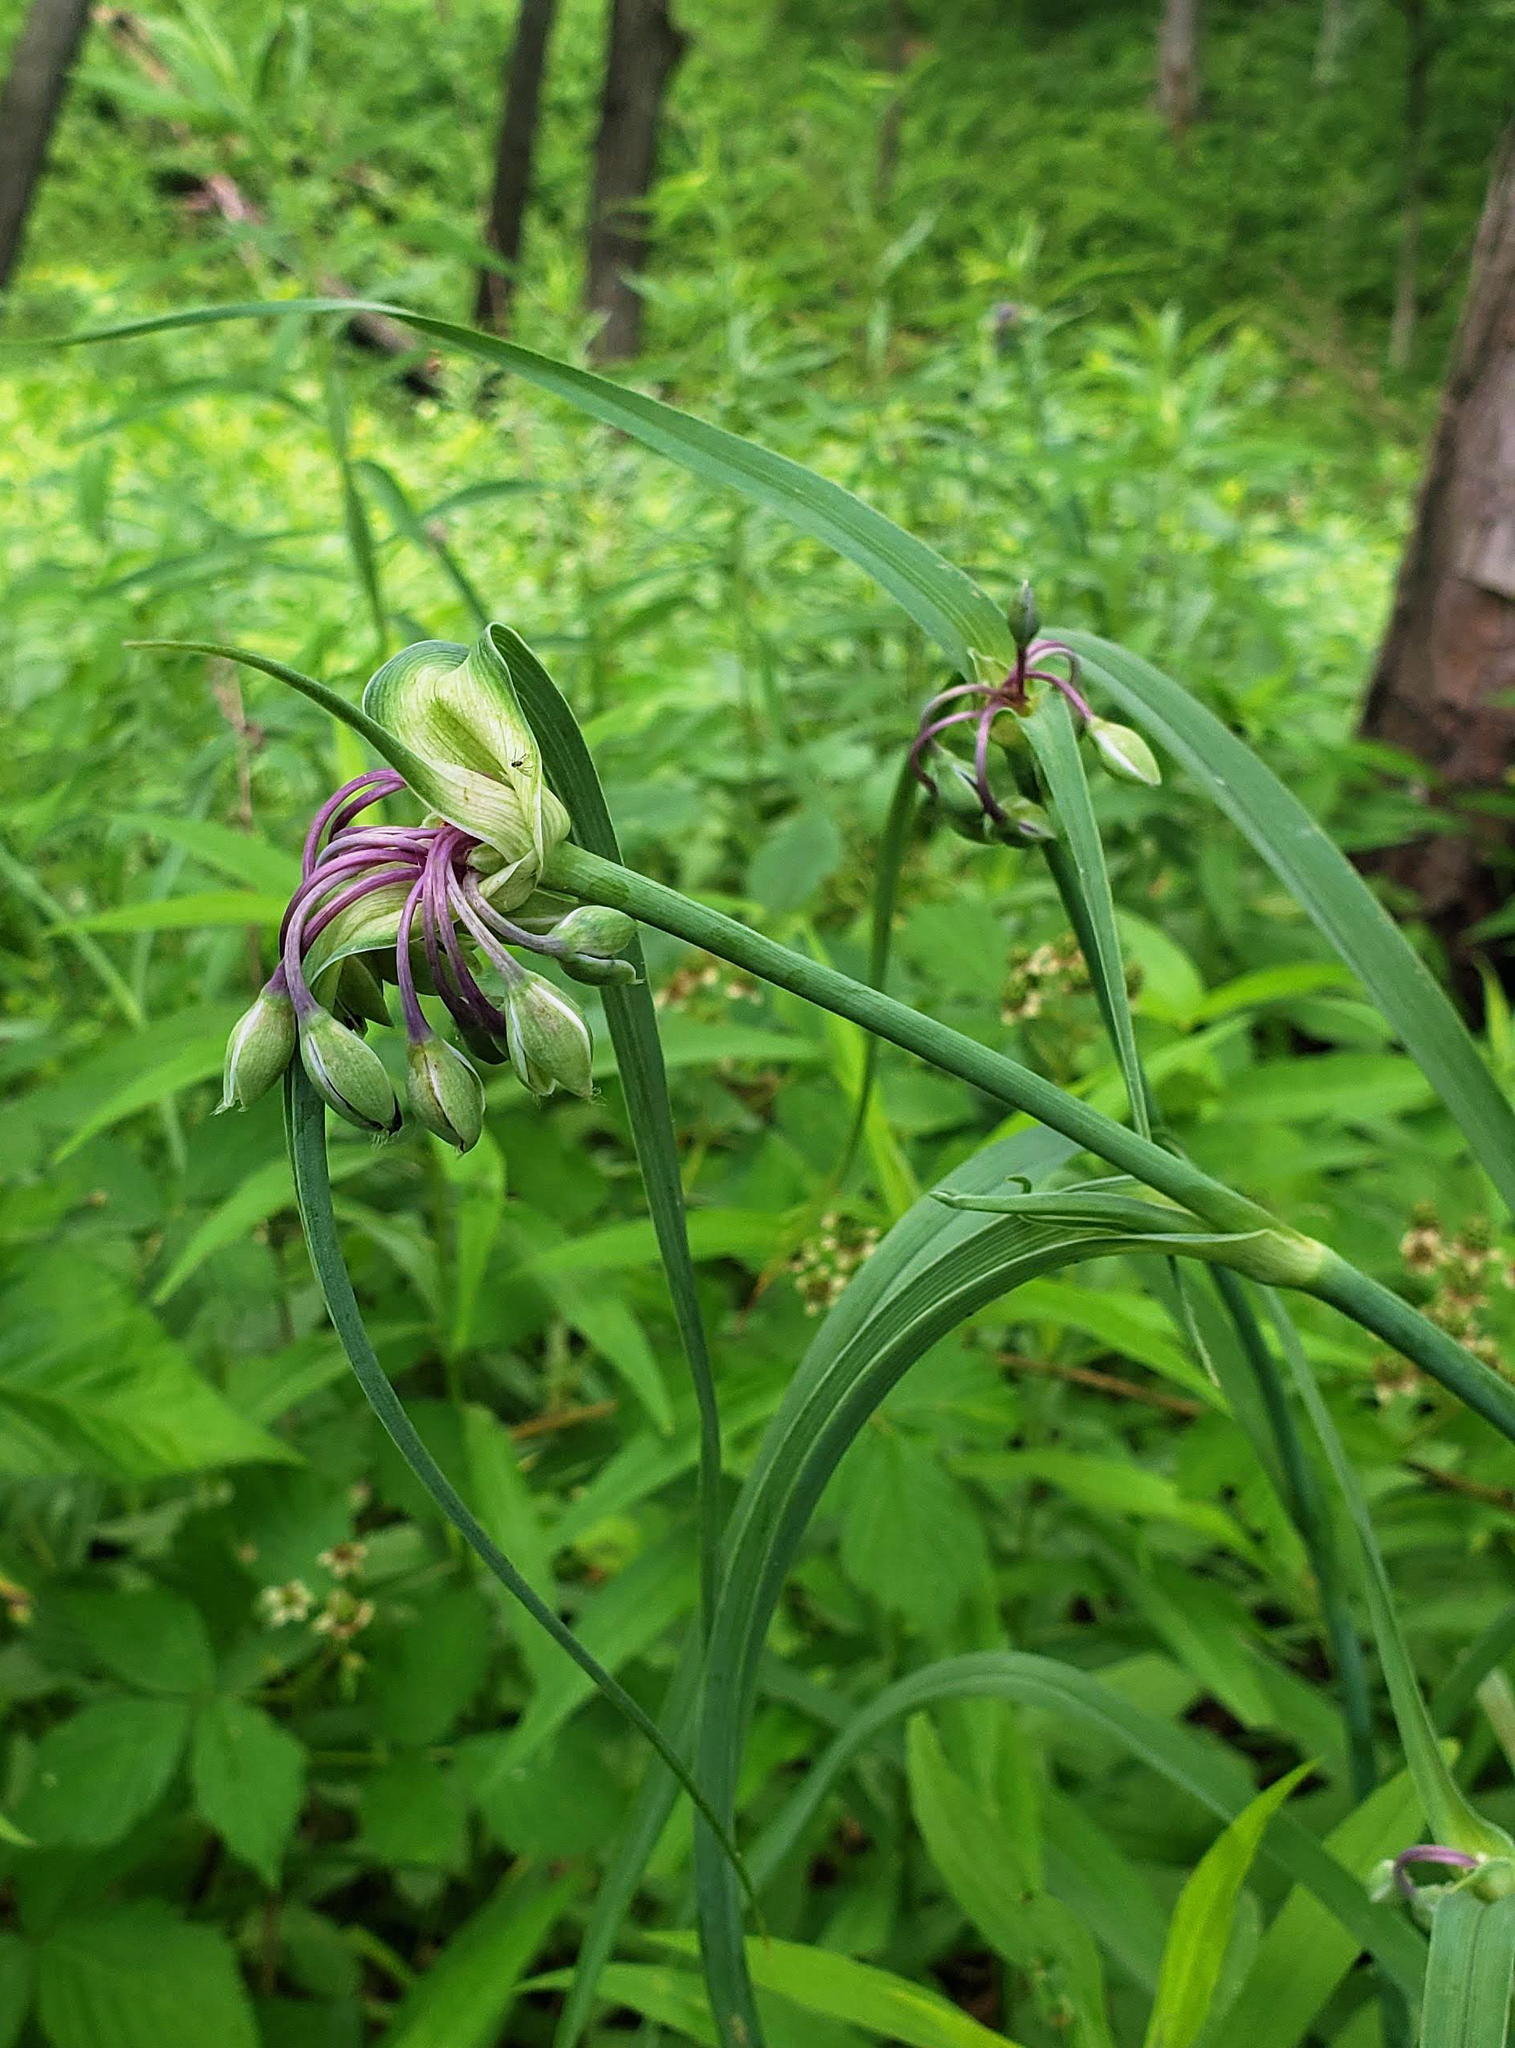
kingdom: Plantae
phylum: Tracheophyta
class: Liliopsida
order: Commelinales
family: Commelinaceae
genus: Tradescantia
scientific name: Tradescantia ohiensis
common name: Ohio spiderwort
